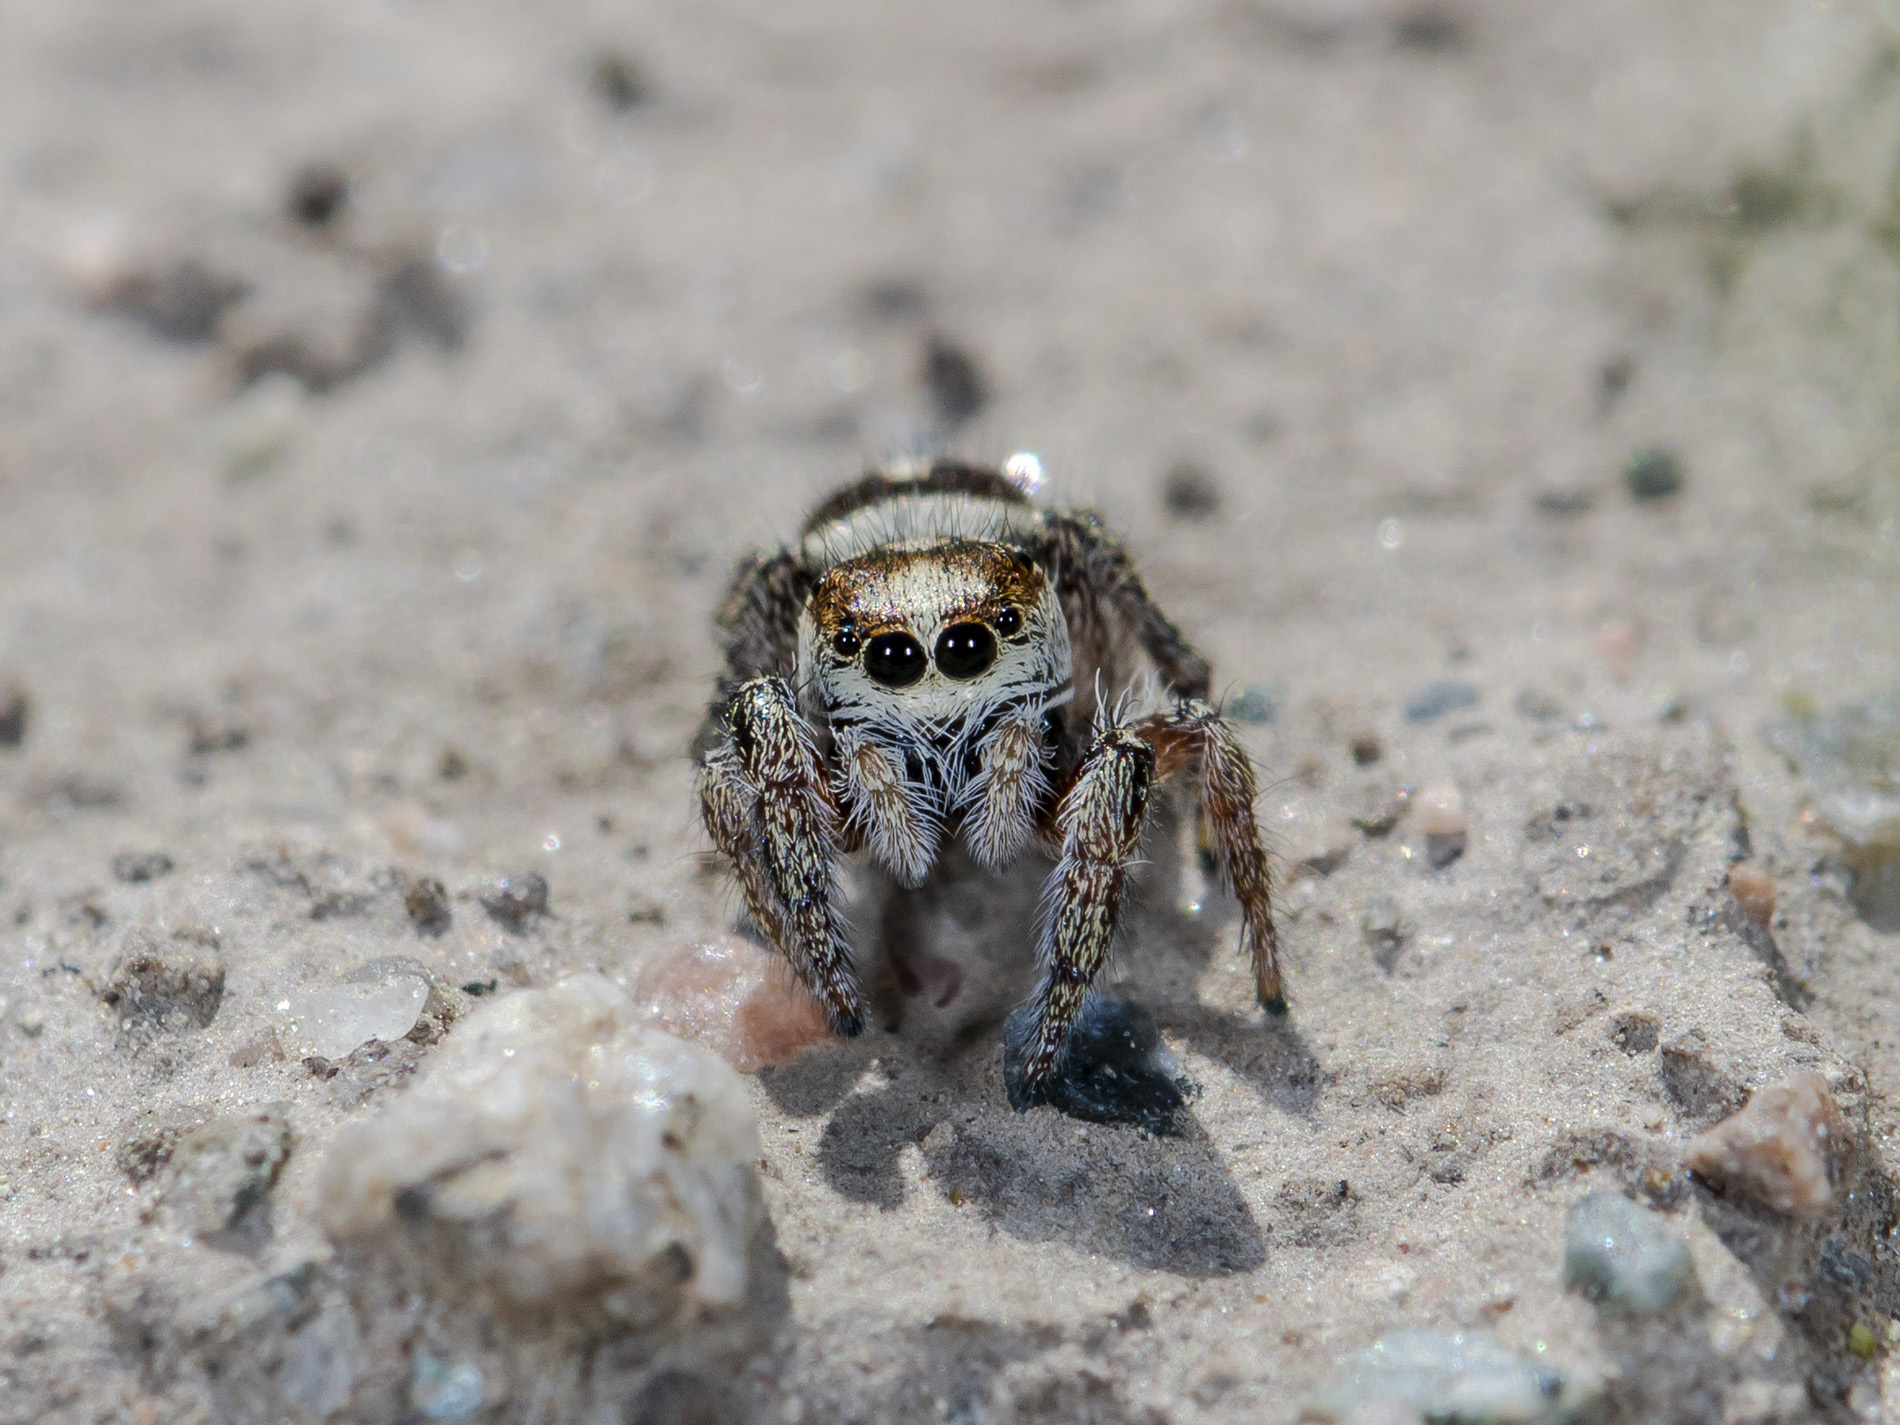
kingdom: Animalia
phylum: Arthropoda
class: Arachnida
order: Araneae
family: Salticidae
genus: Pellenes
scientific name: Pellenes allegrii
